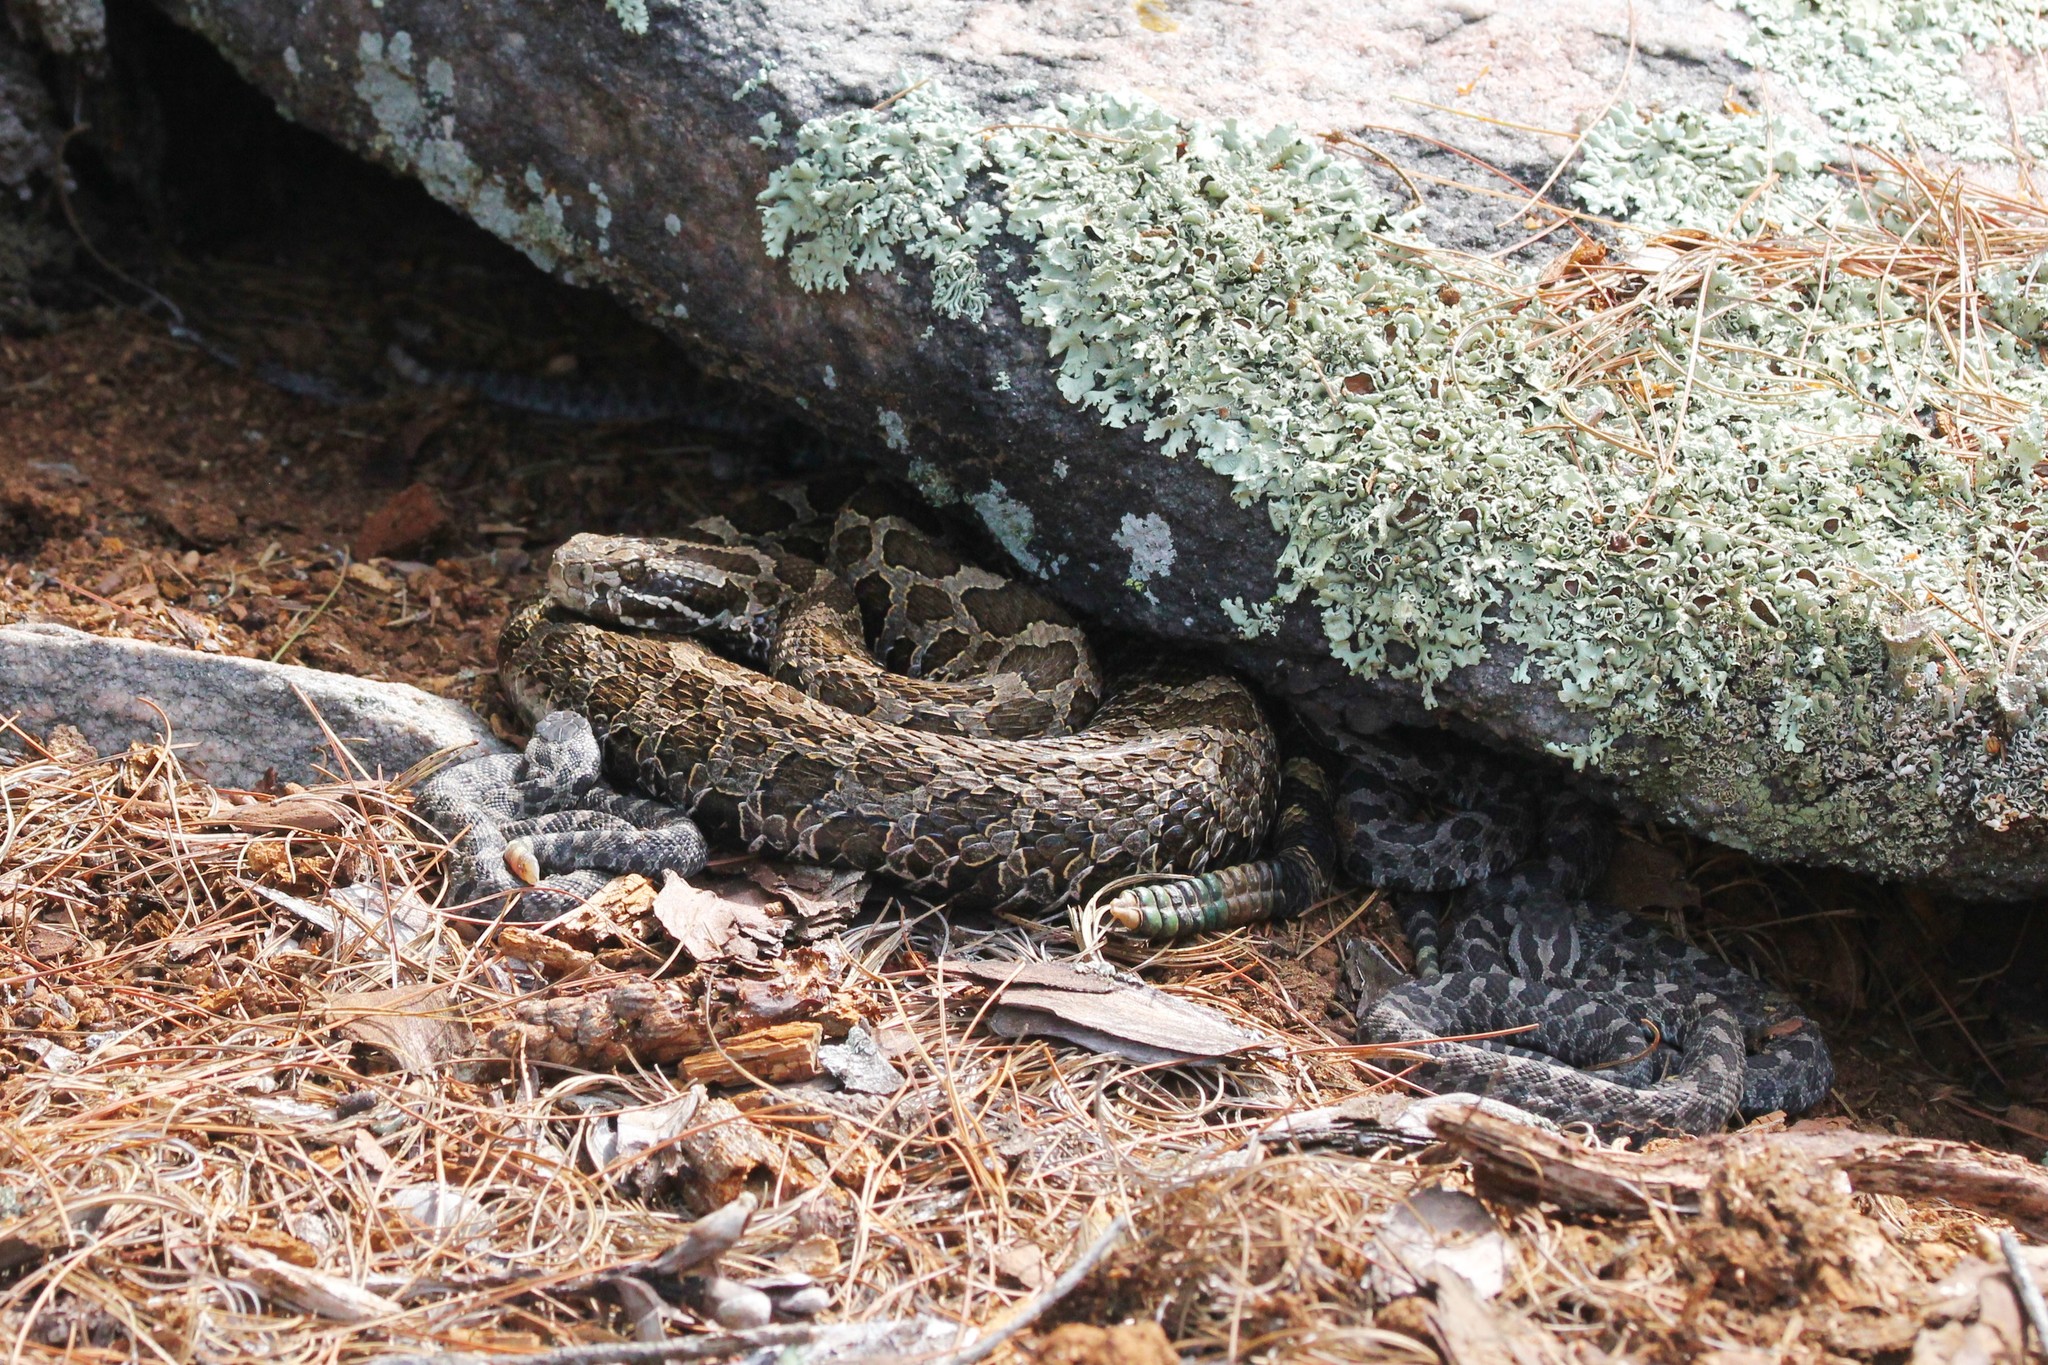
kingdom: Animalia
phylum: Chordata
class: Squamata
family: Viperidae
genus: Sistrurus
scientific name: Sistrurus catenatus
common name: Massasauga
